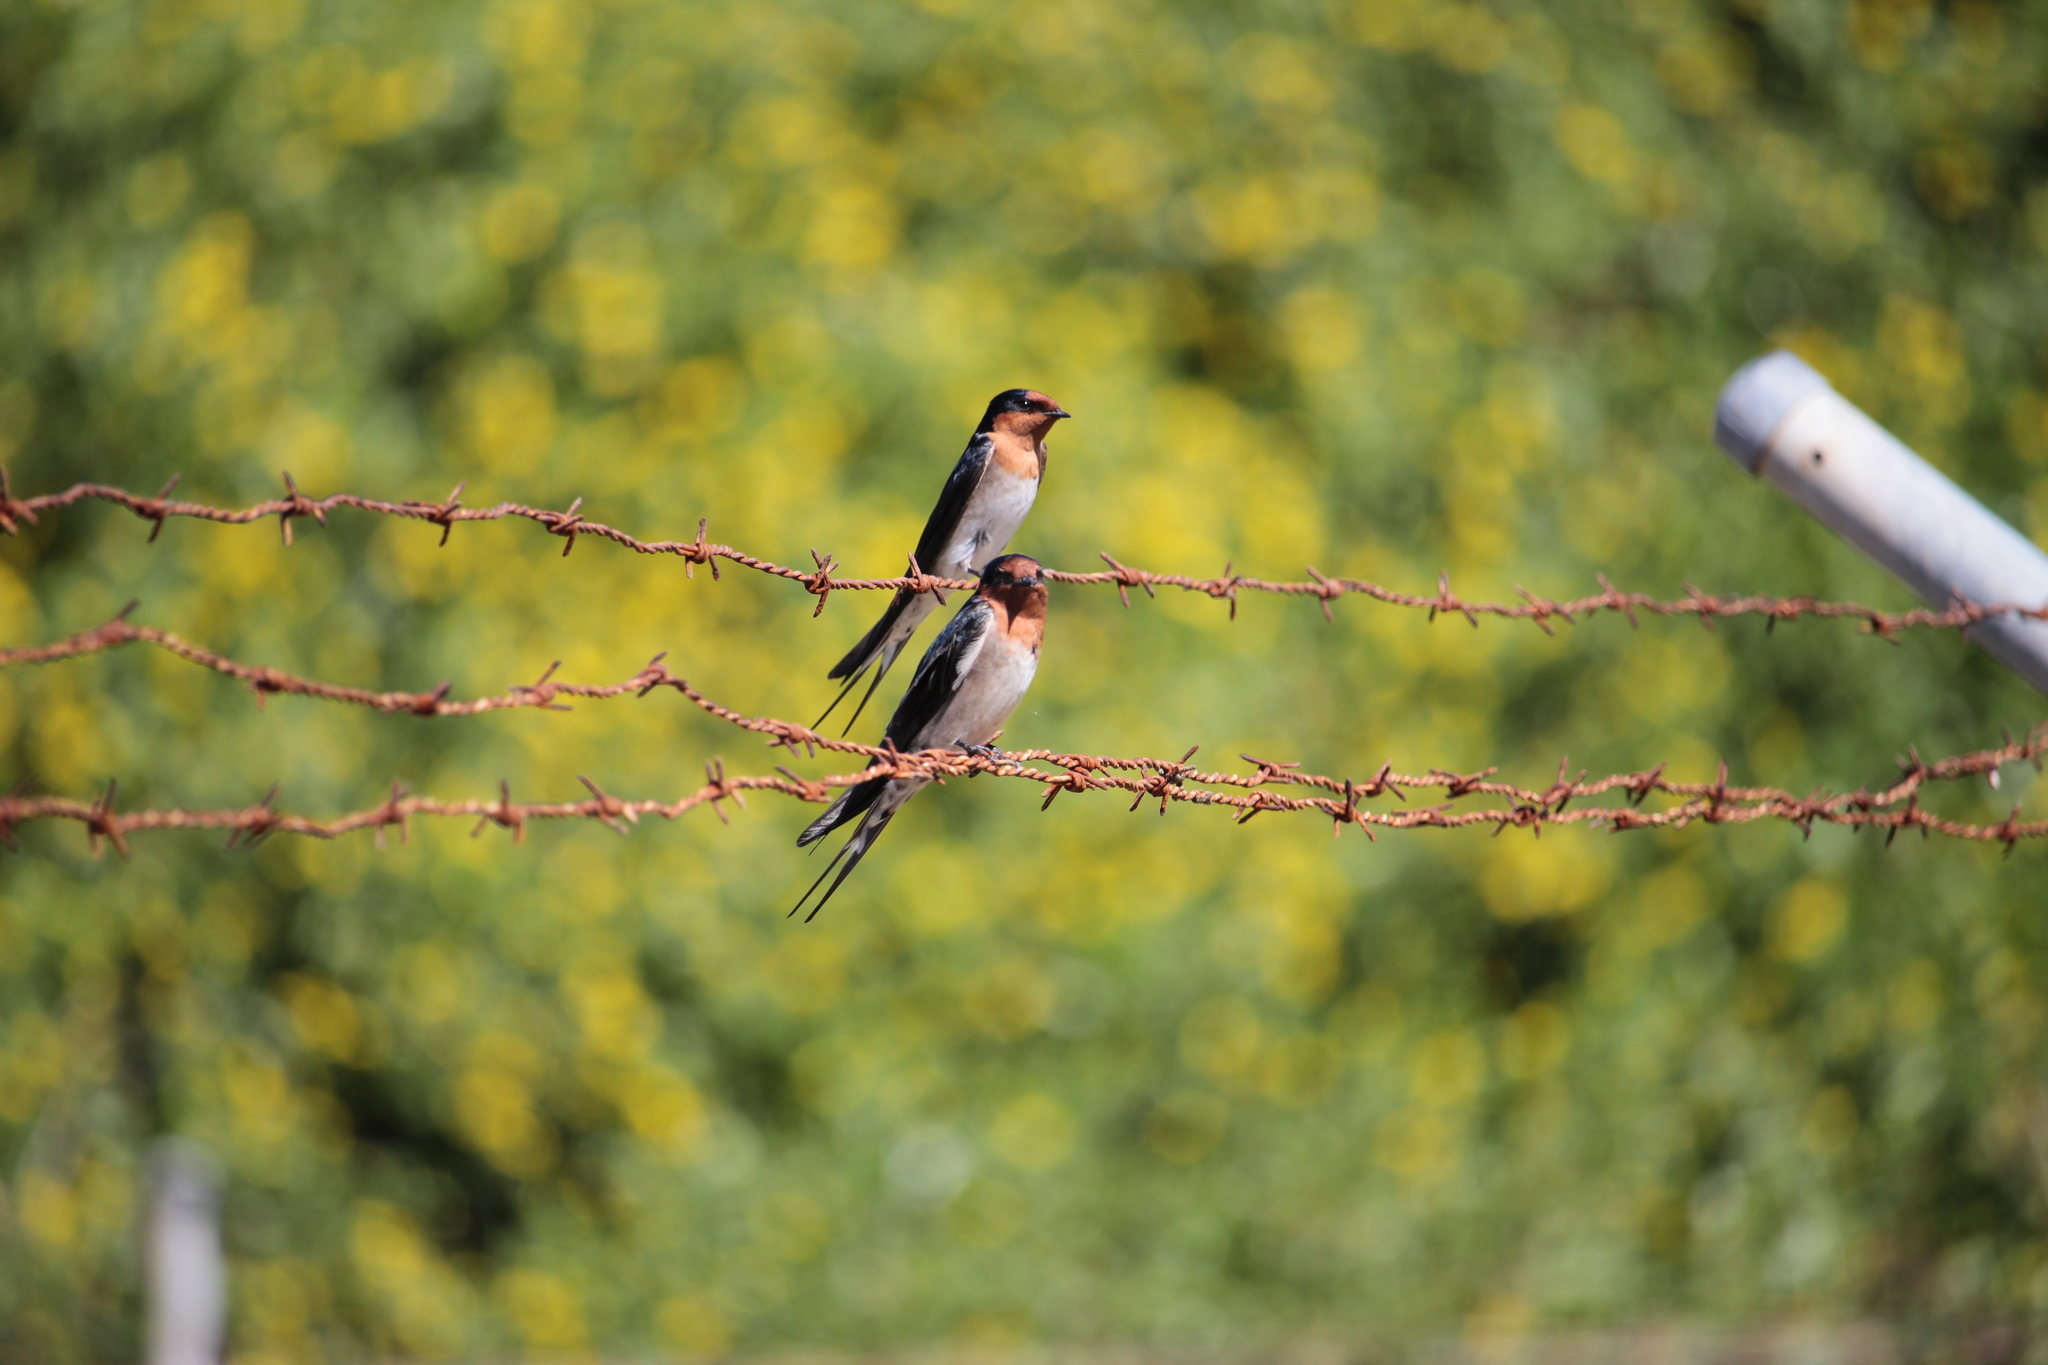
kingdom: Animalia
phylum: Chordata
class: Aves
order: Passeriformes
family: Hirundinidae
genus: Hirundo
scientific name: Hirundo neoxena
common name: Welcome swallow
